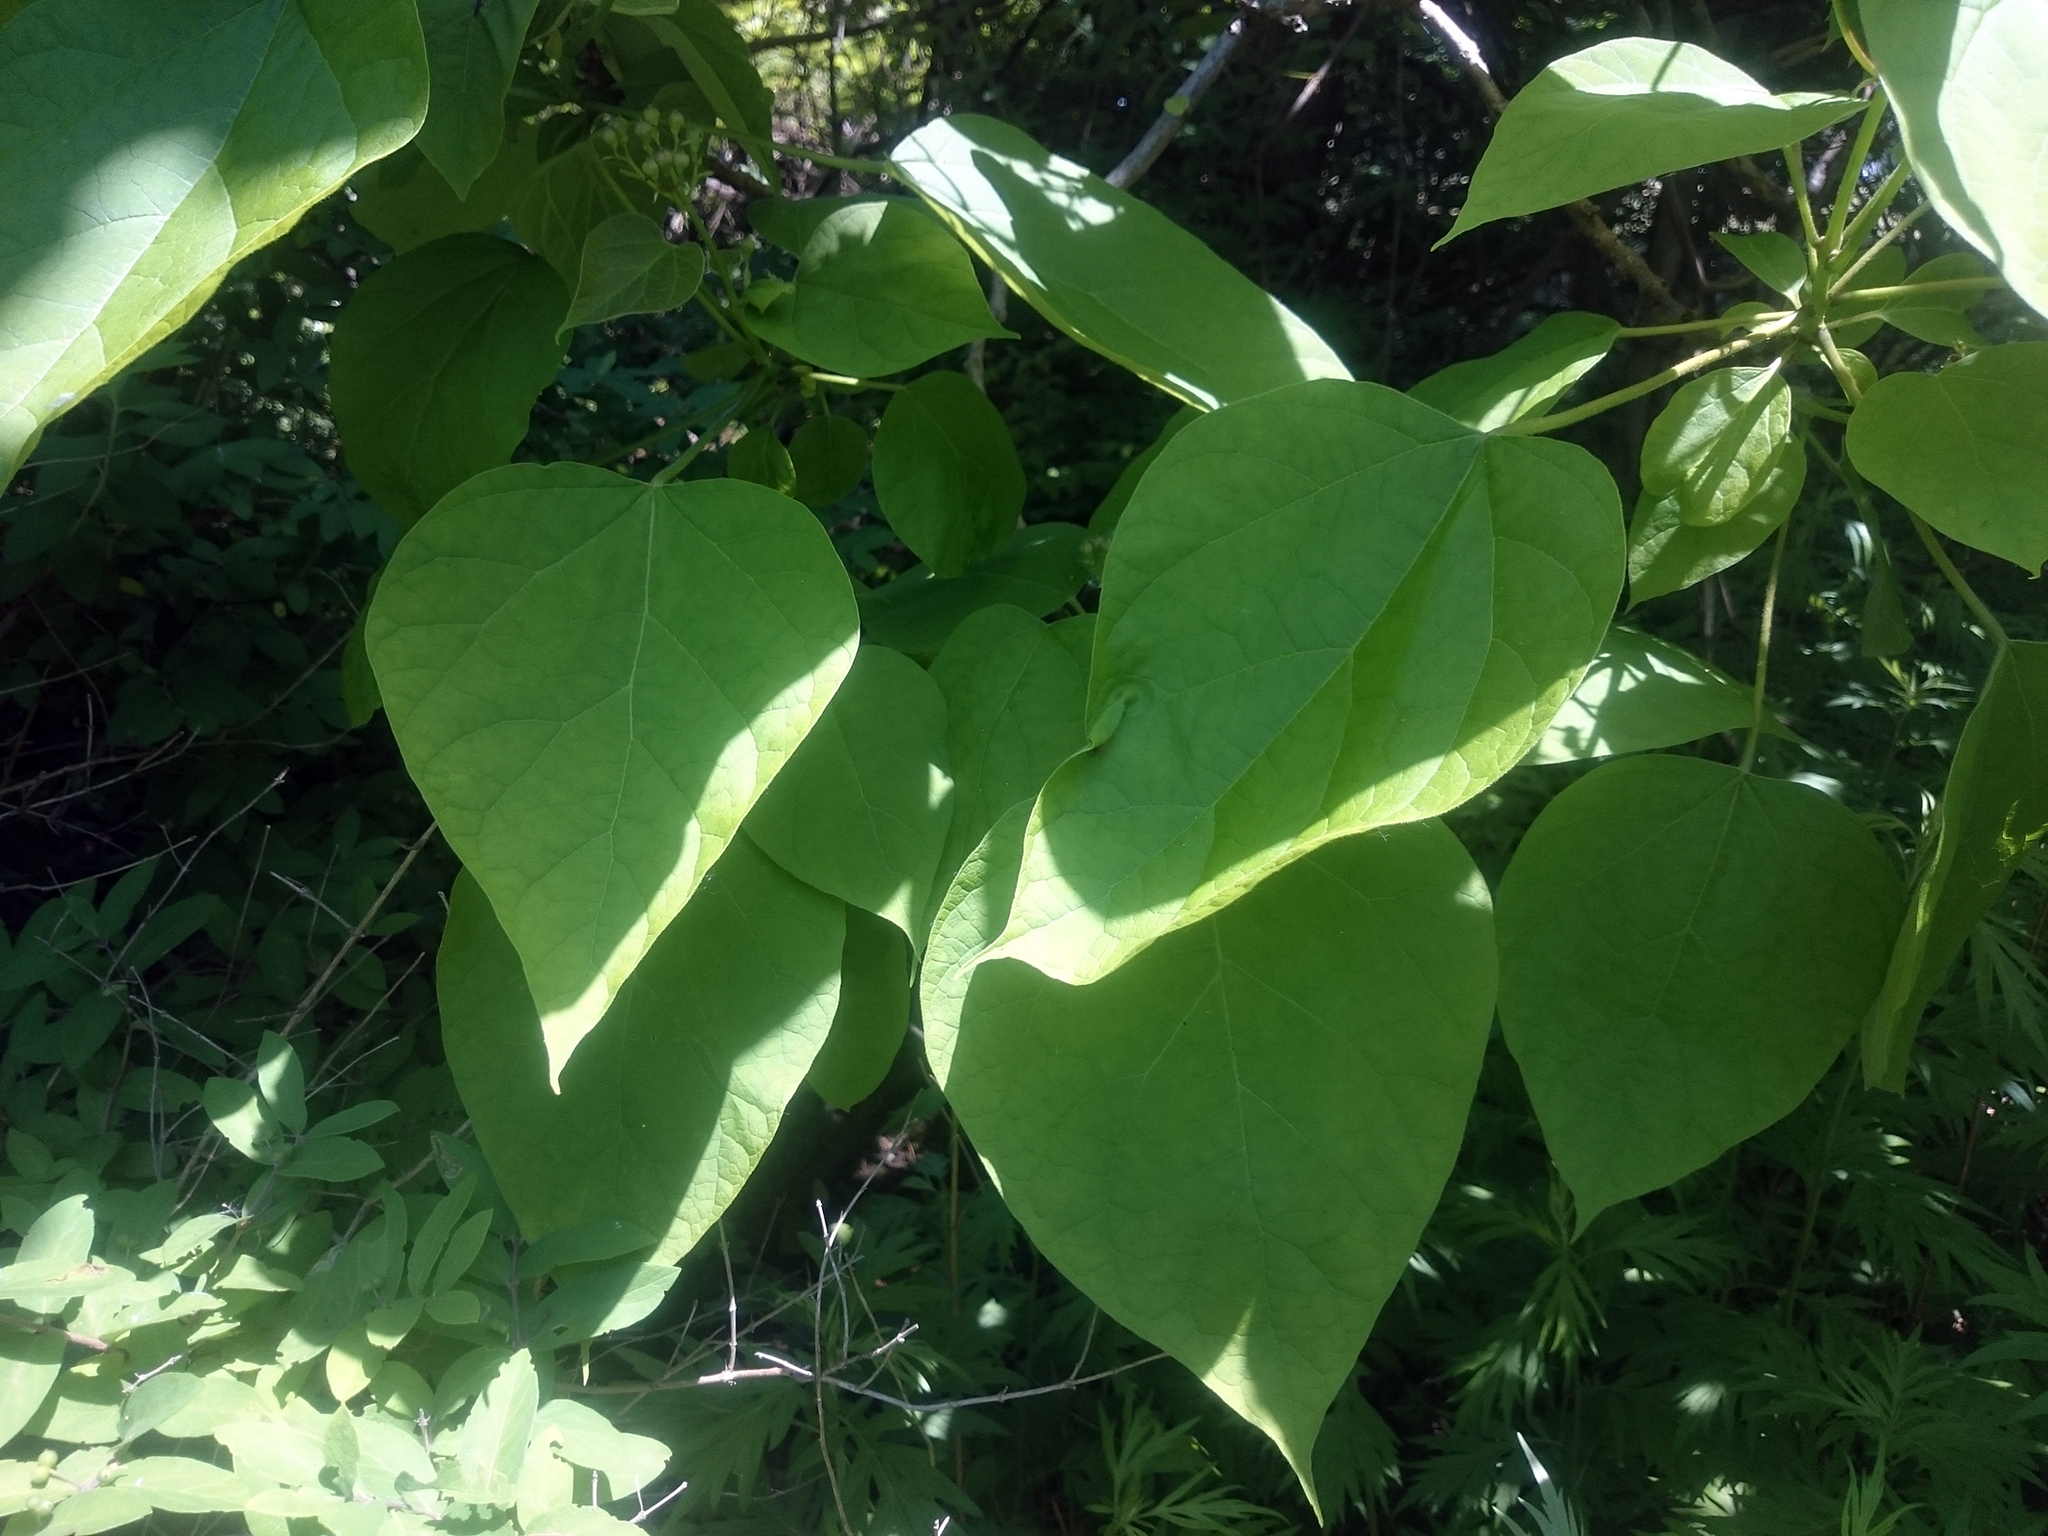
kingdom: Plantae
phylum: Tracheophyta
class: Magnoliopsida
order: Lamiales
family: Bignoniaceae
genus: Catalpa
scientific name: Catalpa speciosa
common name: Northern catalpa
